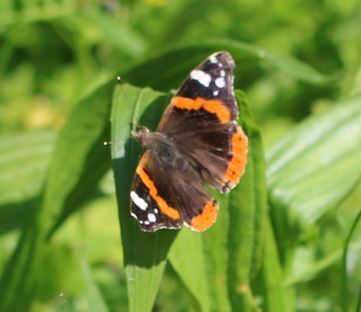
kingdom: Animalia
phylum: Arthropoda
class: Insecta
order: Lepidoptera
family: Nymphalidae
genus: Vanessa
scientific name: Vanessa atalanta
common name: Red admiral
